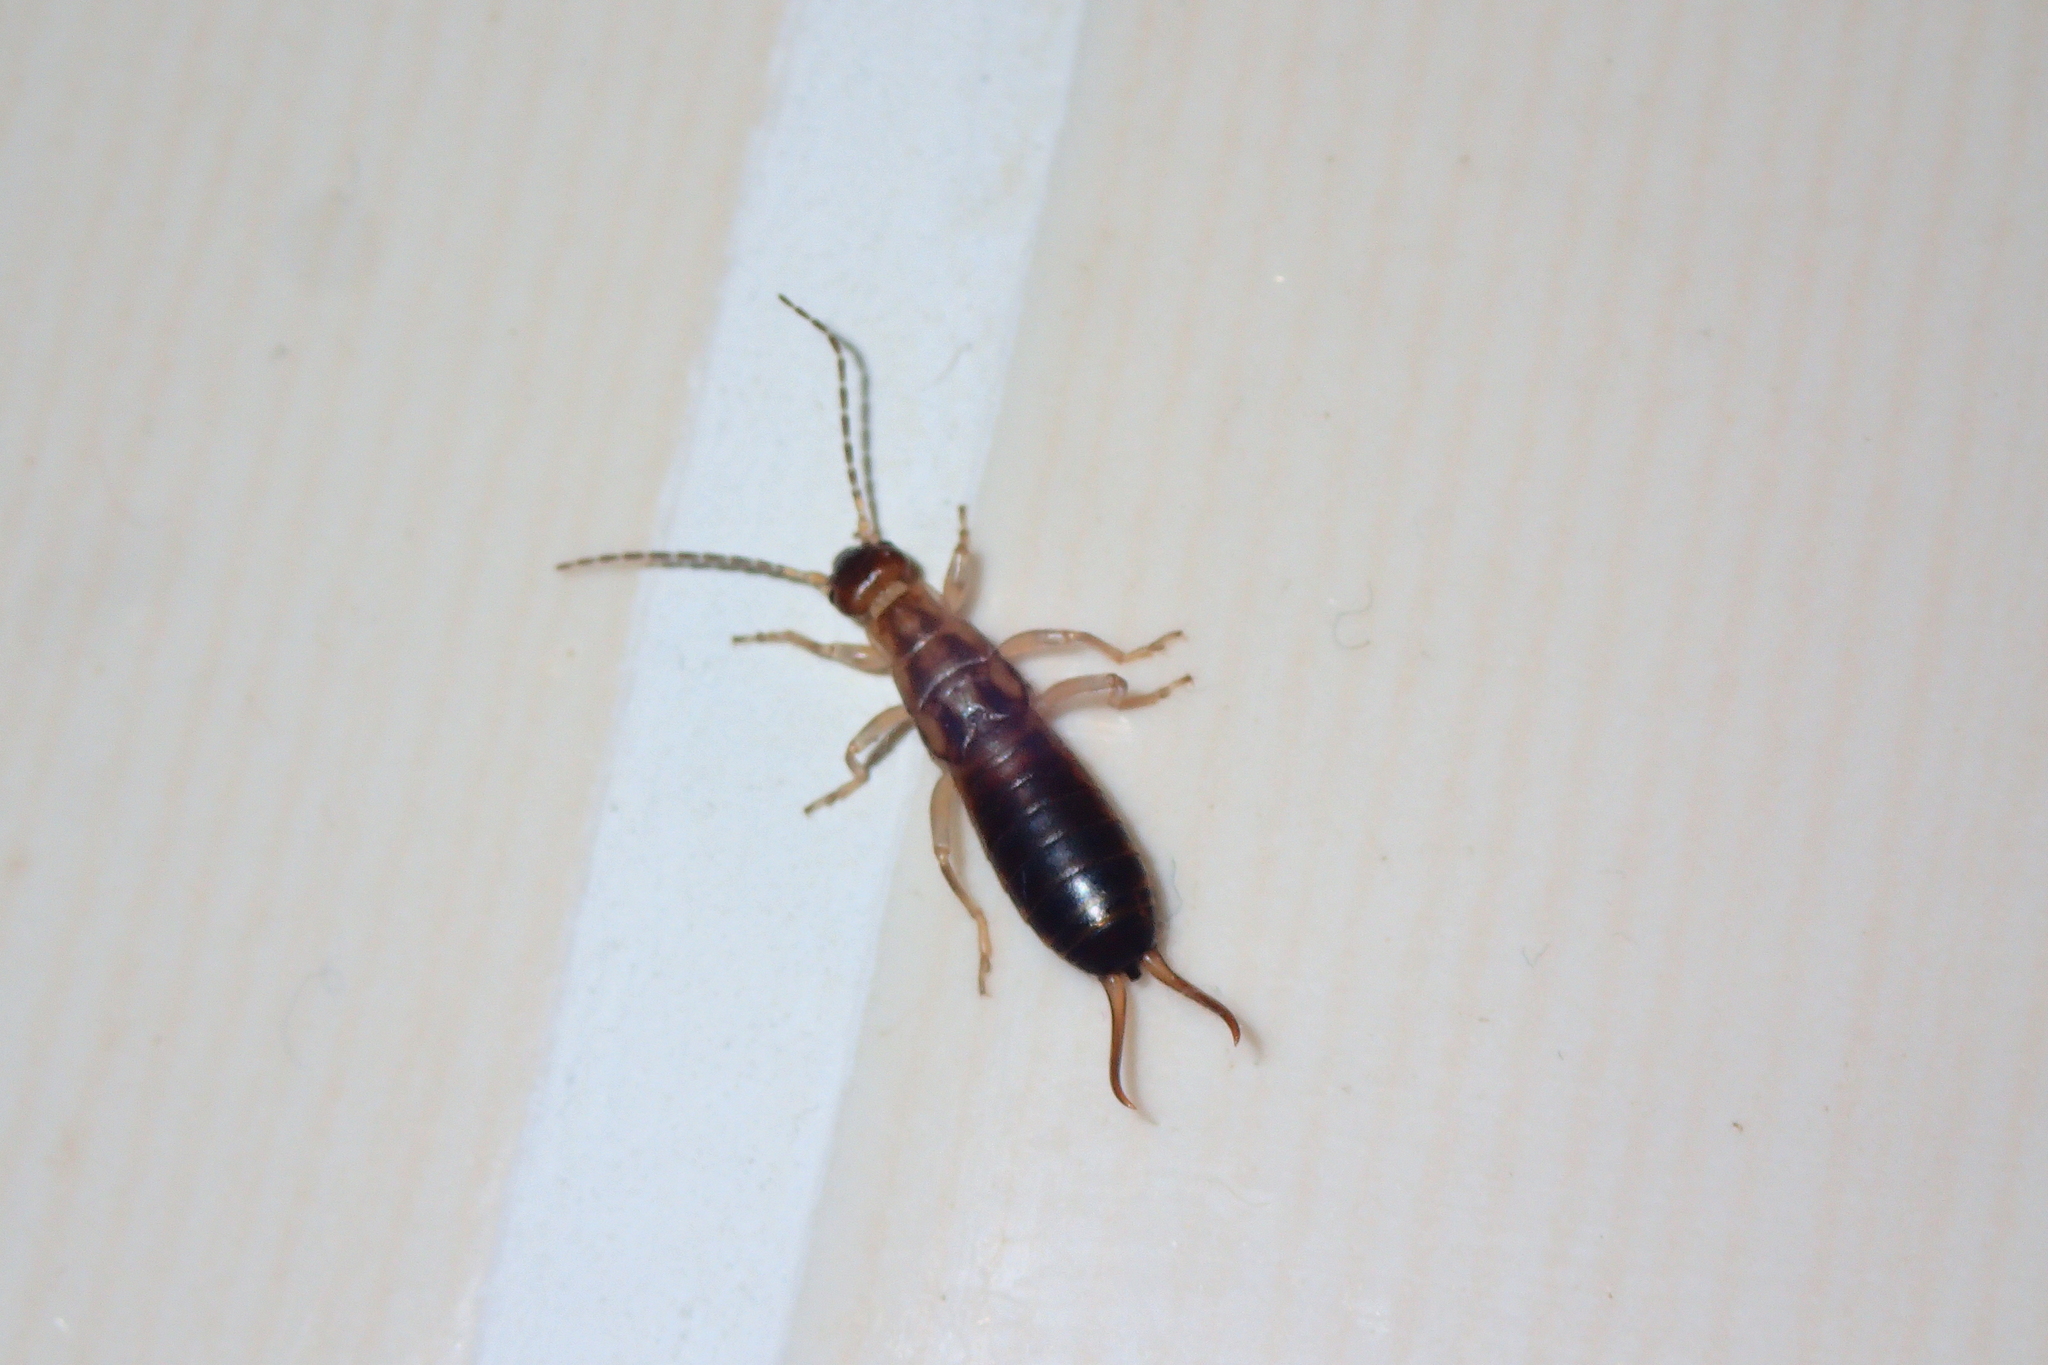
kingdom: Animalia
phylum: Arthropoda
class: Insecta
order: Dermaptera
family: Forficulidae
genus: Forficula
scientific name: Forficula
